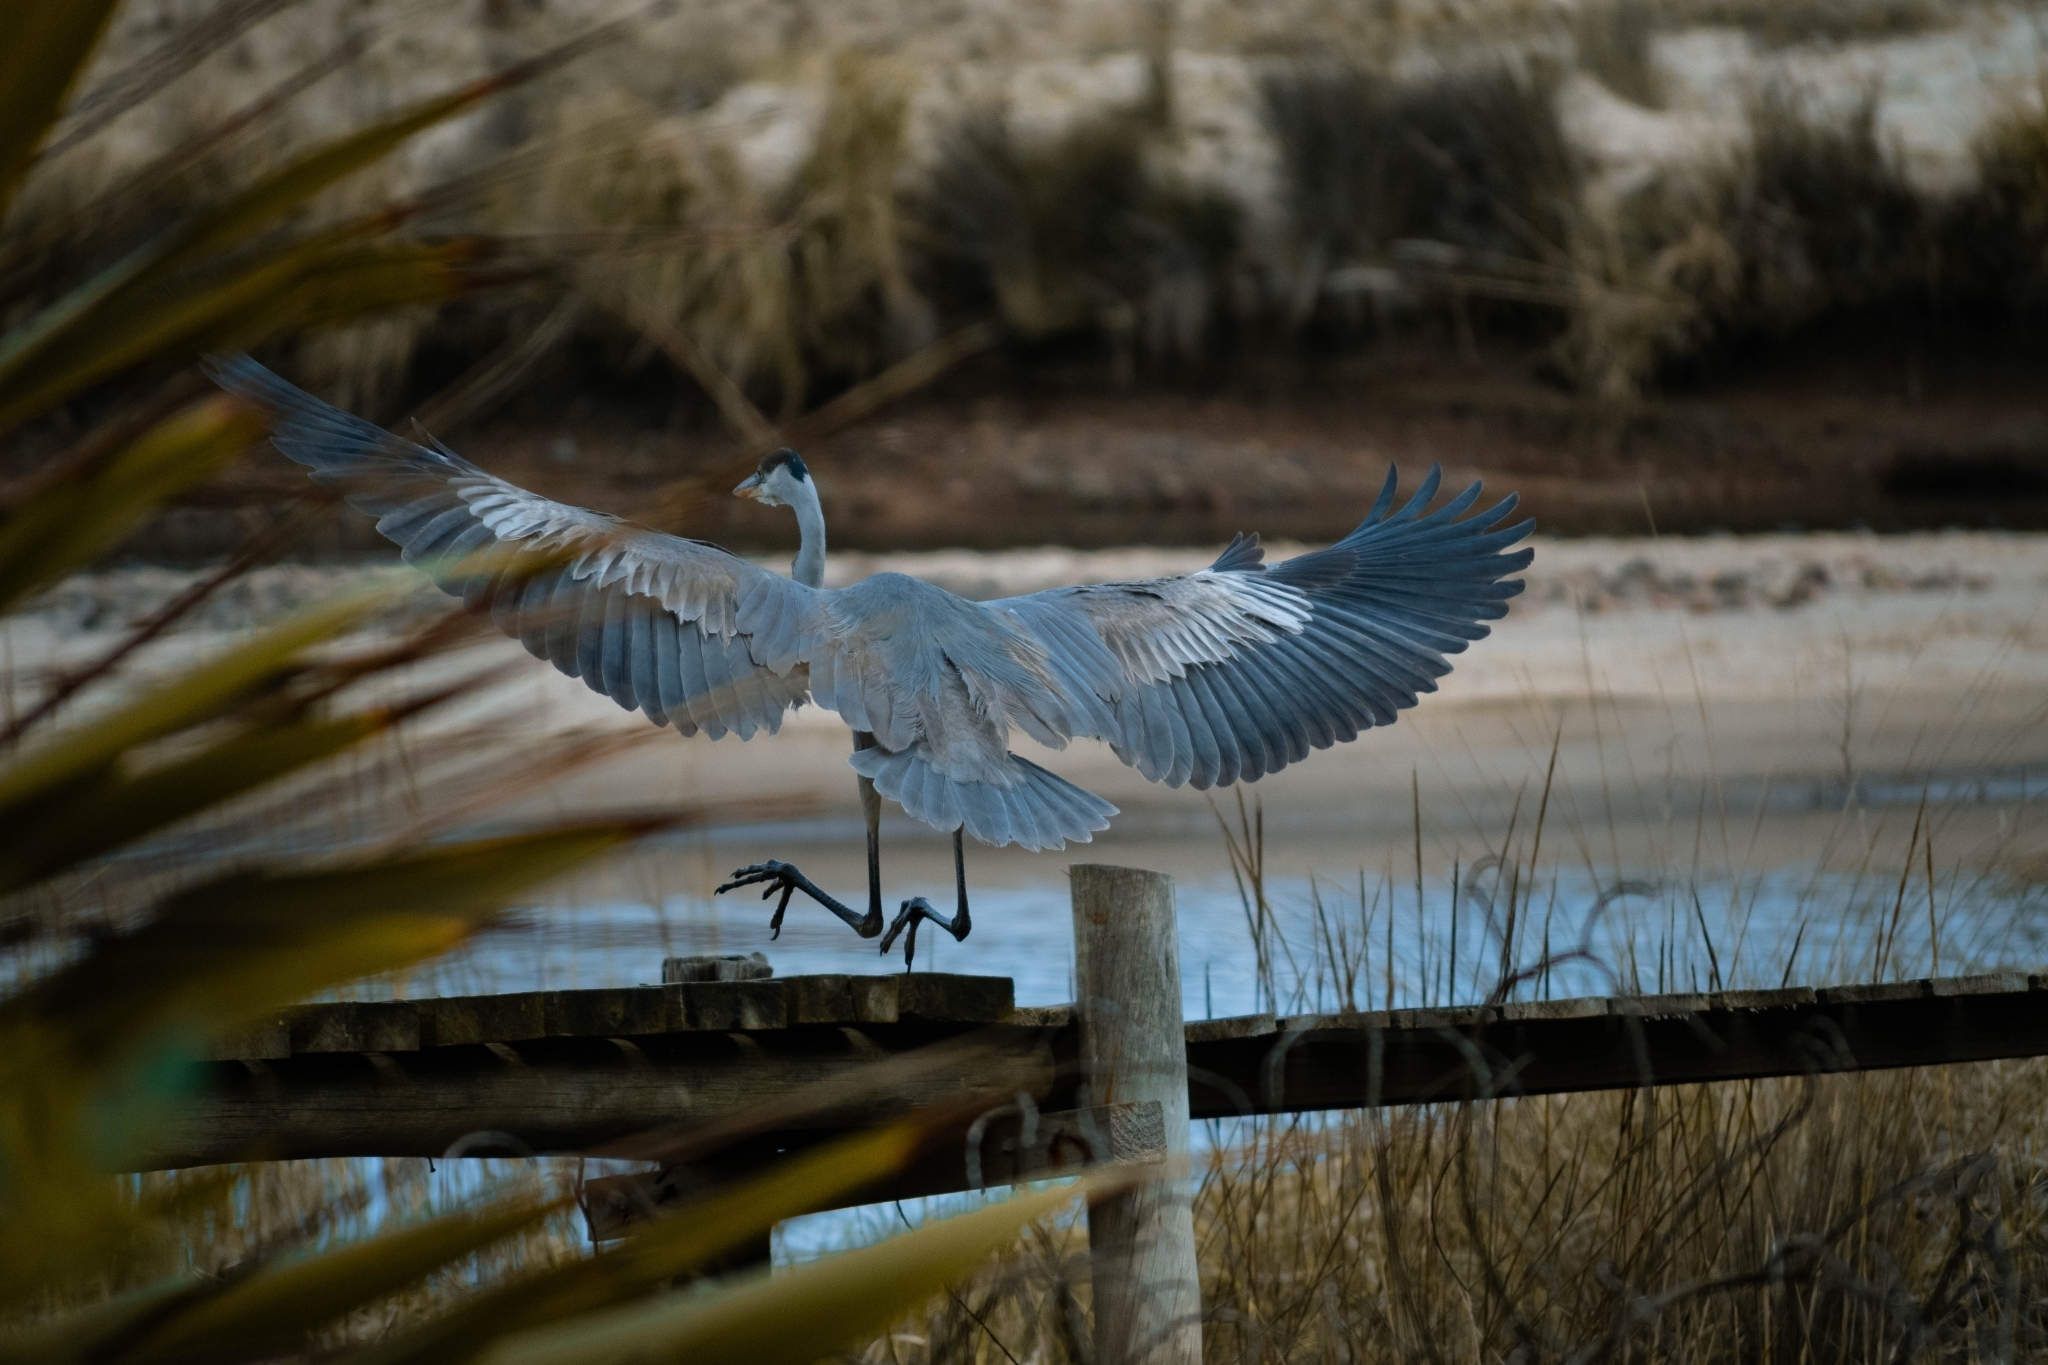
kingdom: Animalia
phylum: Chordata
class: Aves
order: Pelecaniformes
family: Ardeidae
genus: Ardea
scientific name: Ardea cocoi
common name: Cocoi heron
